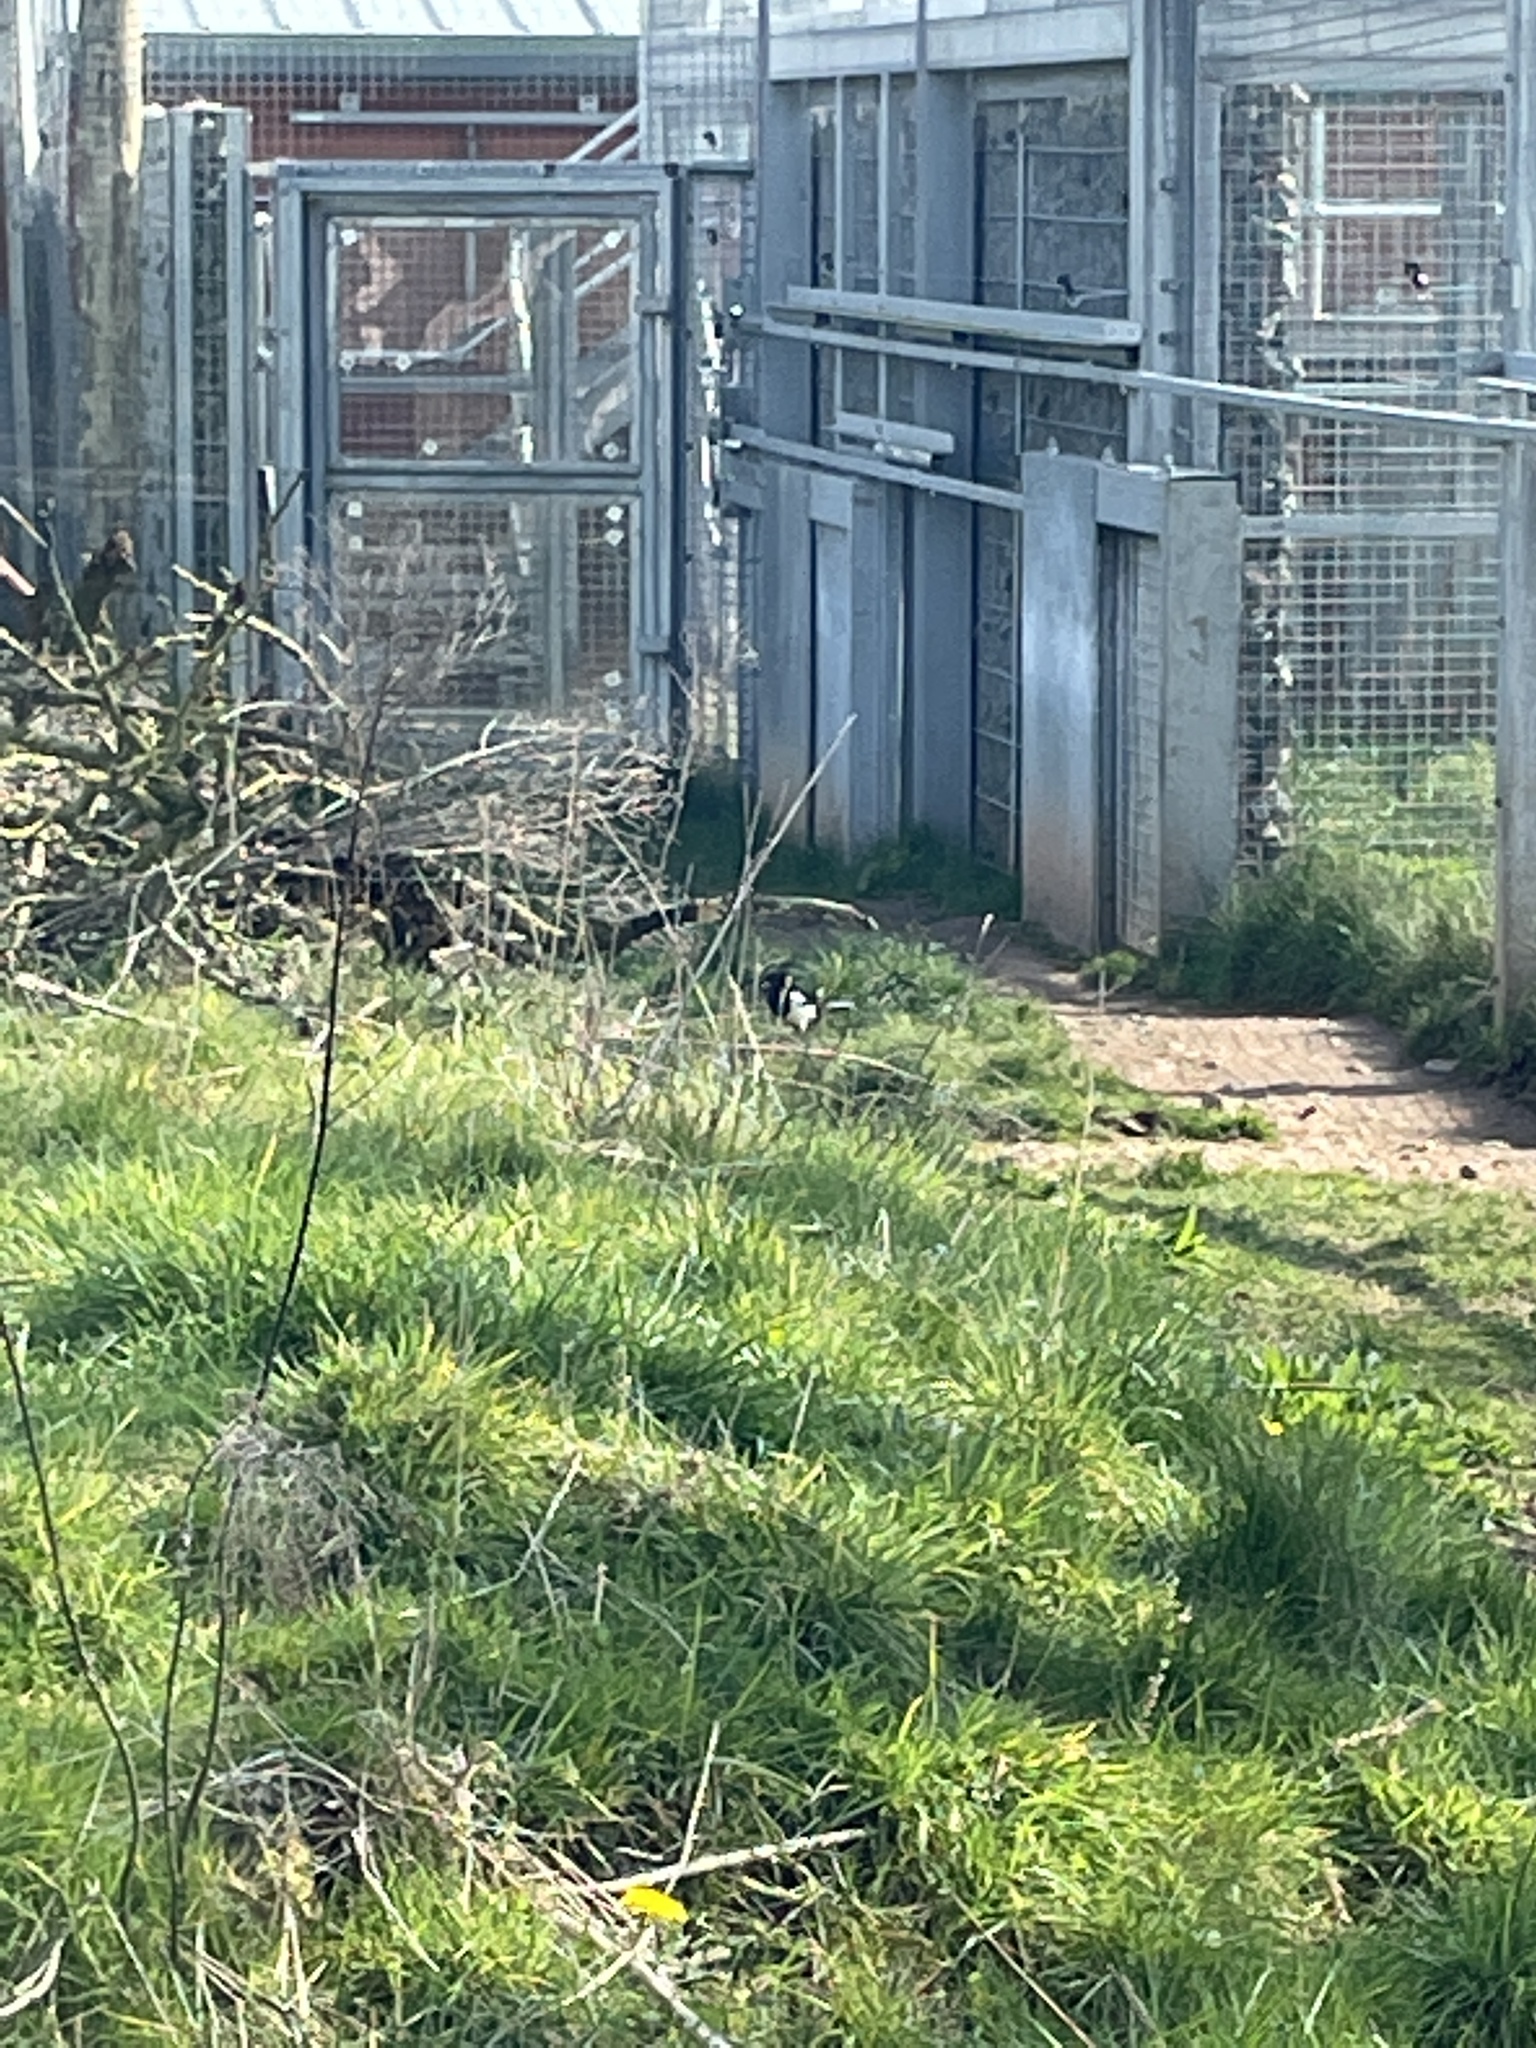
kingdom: Animalia
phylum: Chordata
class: Aves
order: Passeriformes
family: Corvidae
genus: Pica
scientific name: Pica pica
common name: Eurasian magpie
